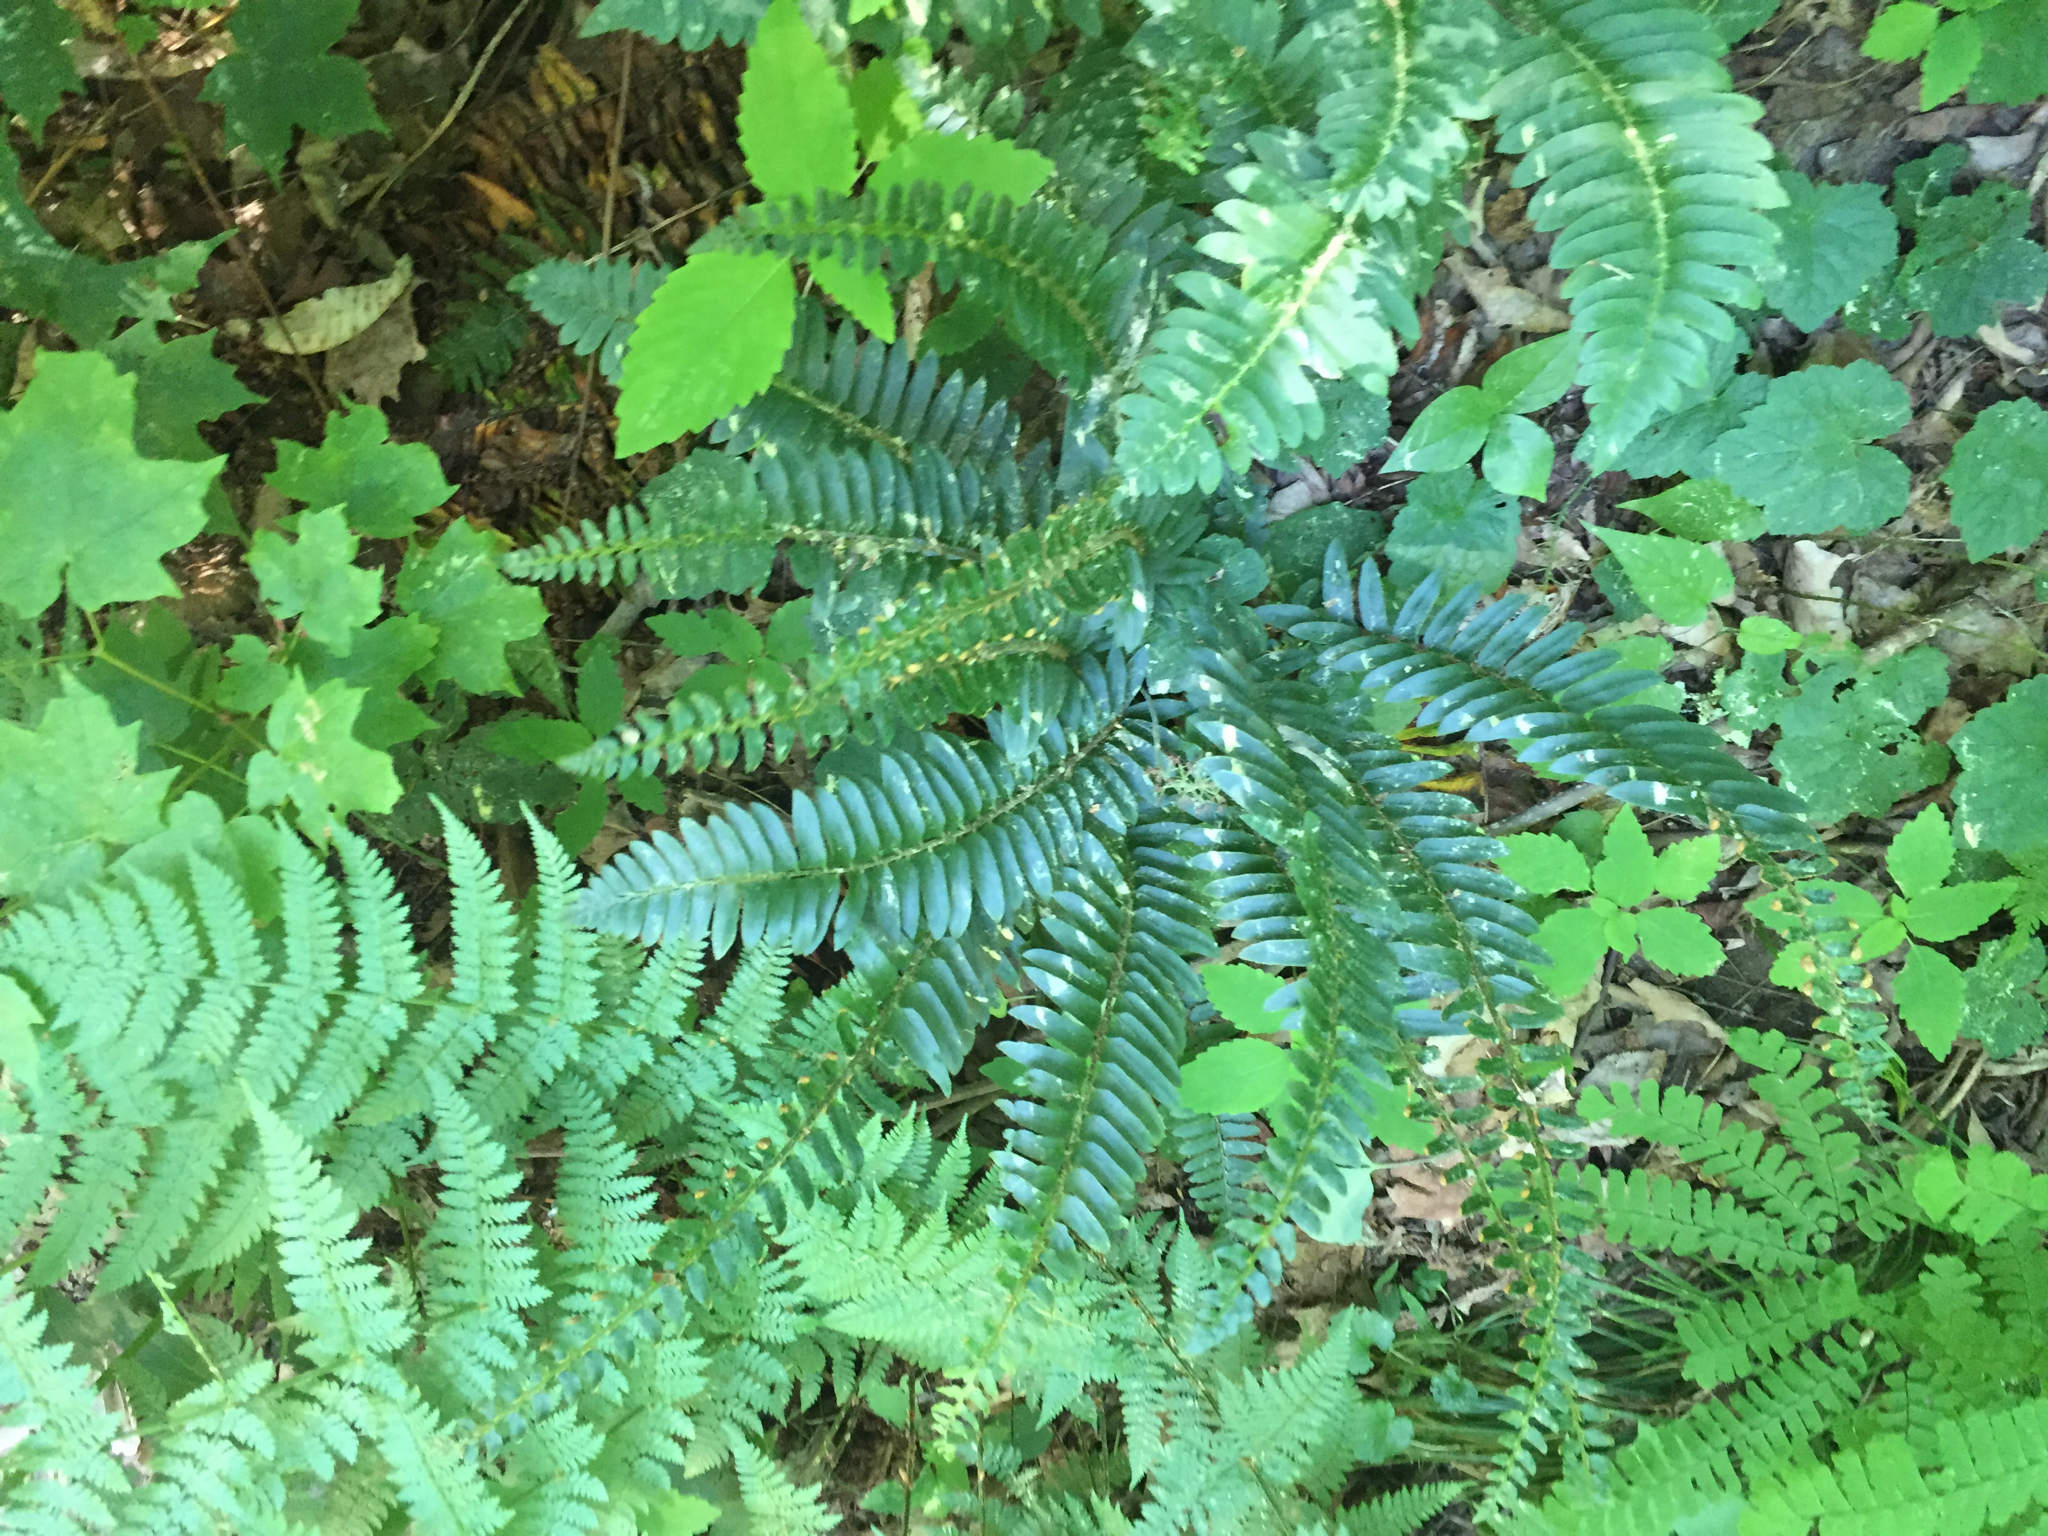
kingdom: Plantae
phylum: Tracheophyta
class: Polypodiopsida
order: Polypodiales
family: Dryopteridaceae
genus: Polystichum
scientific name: Polystichum acrostichoides
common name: Christmas fern
